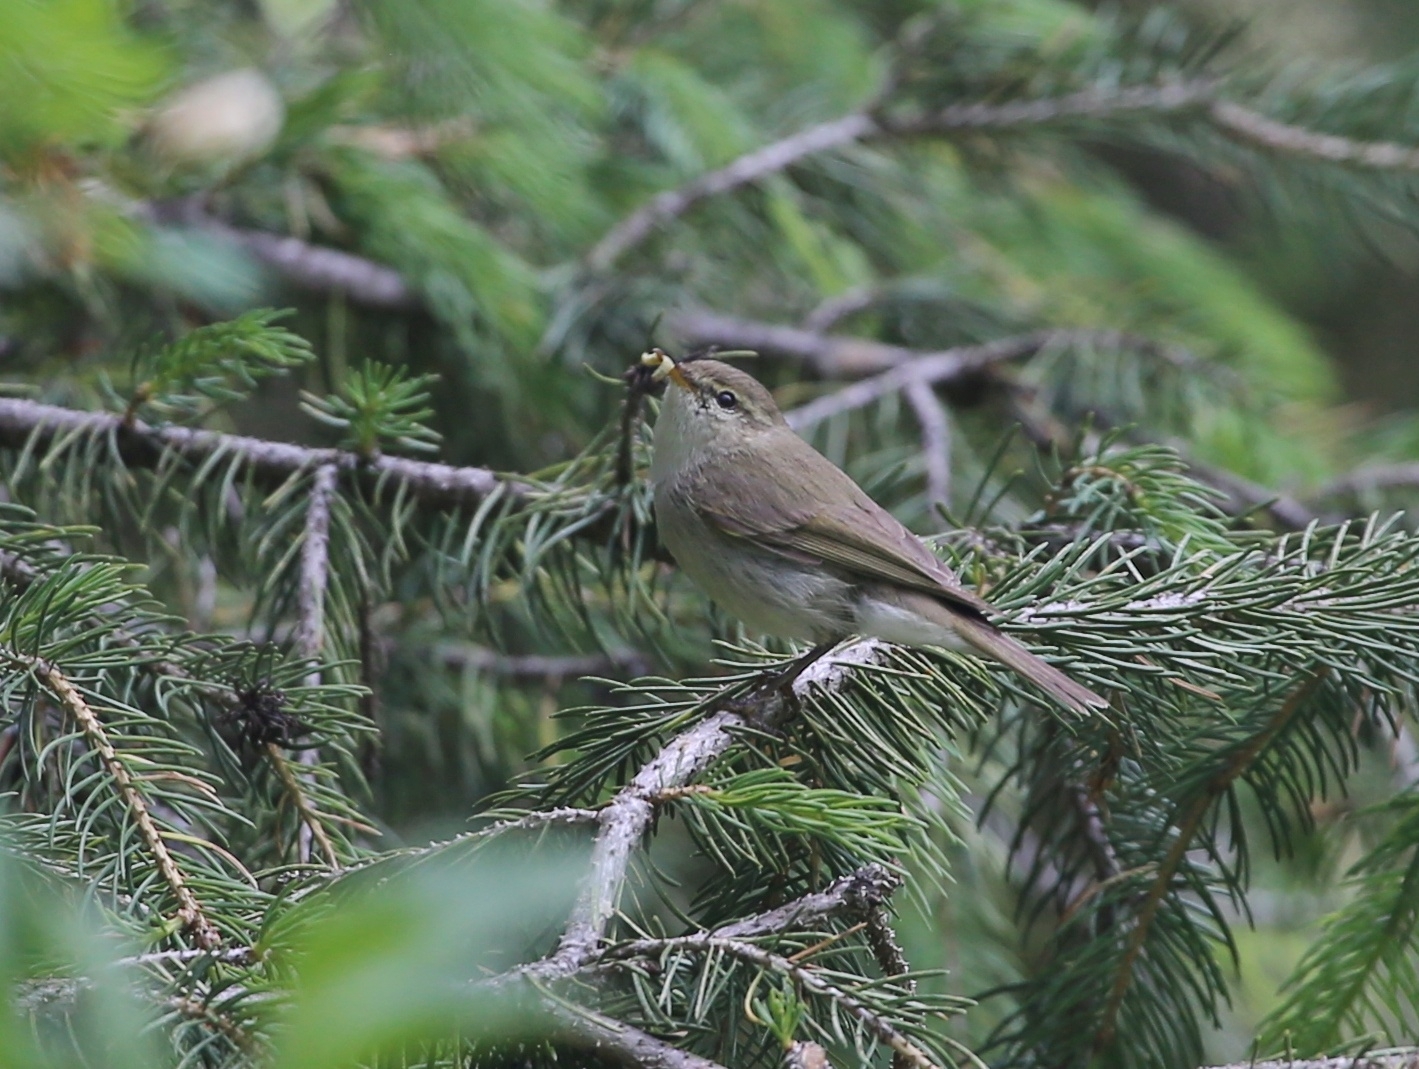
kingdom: Animalia
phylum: Chordata
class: Aves
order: Passeriformes
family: Phylloscopidae
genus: Phylloscopus
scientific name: Phylloscopus trochiloides
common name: Greenish warbler
